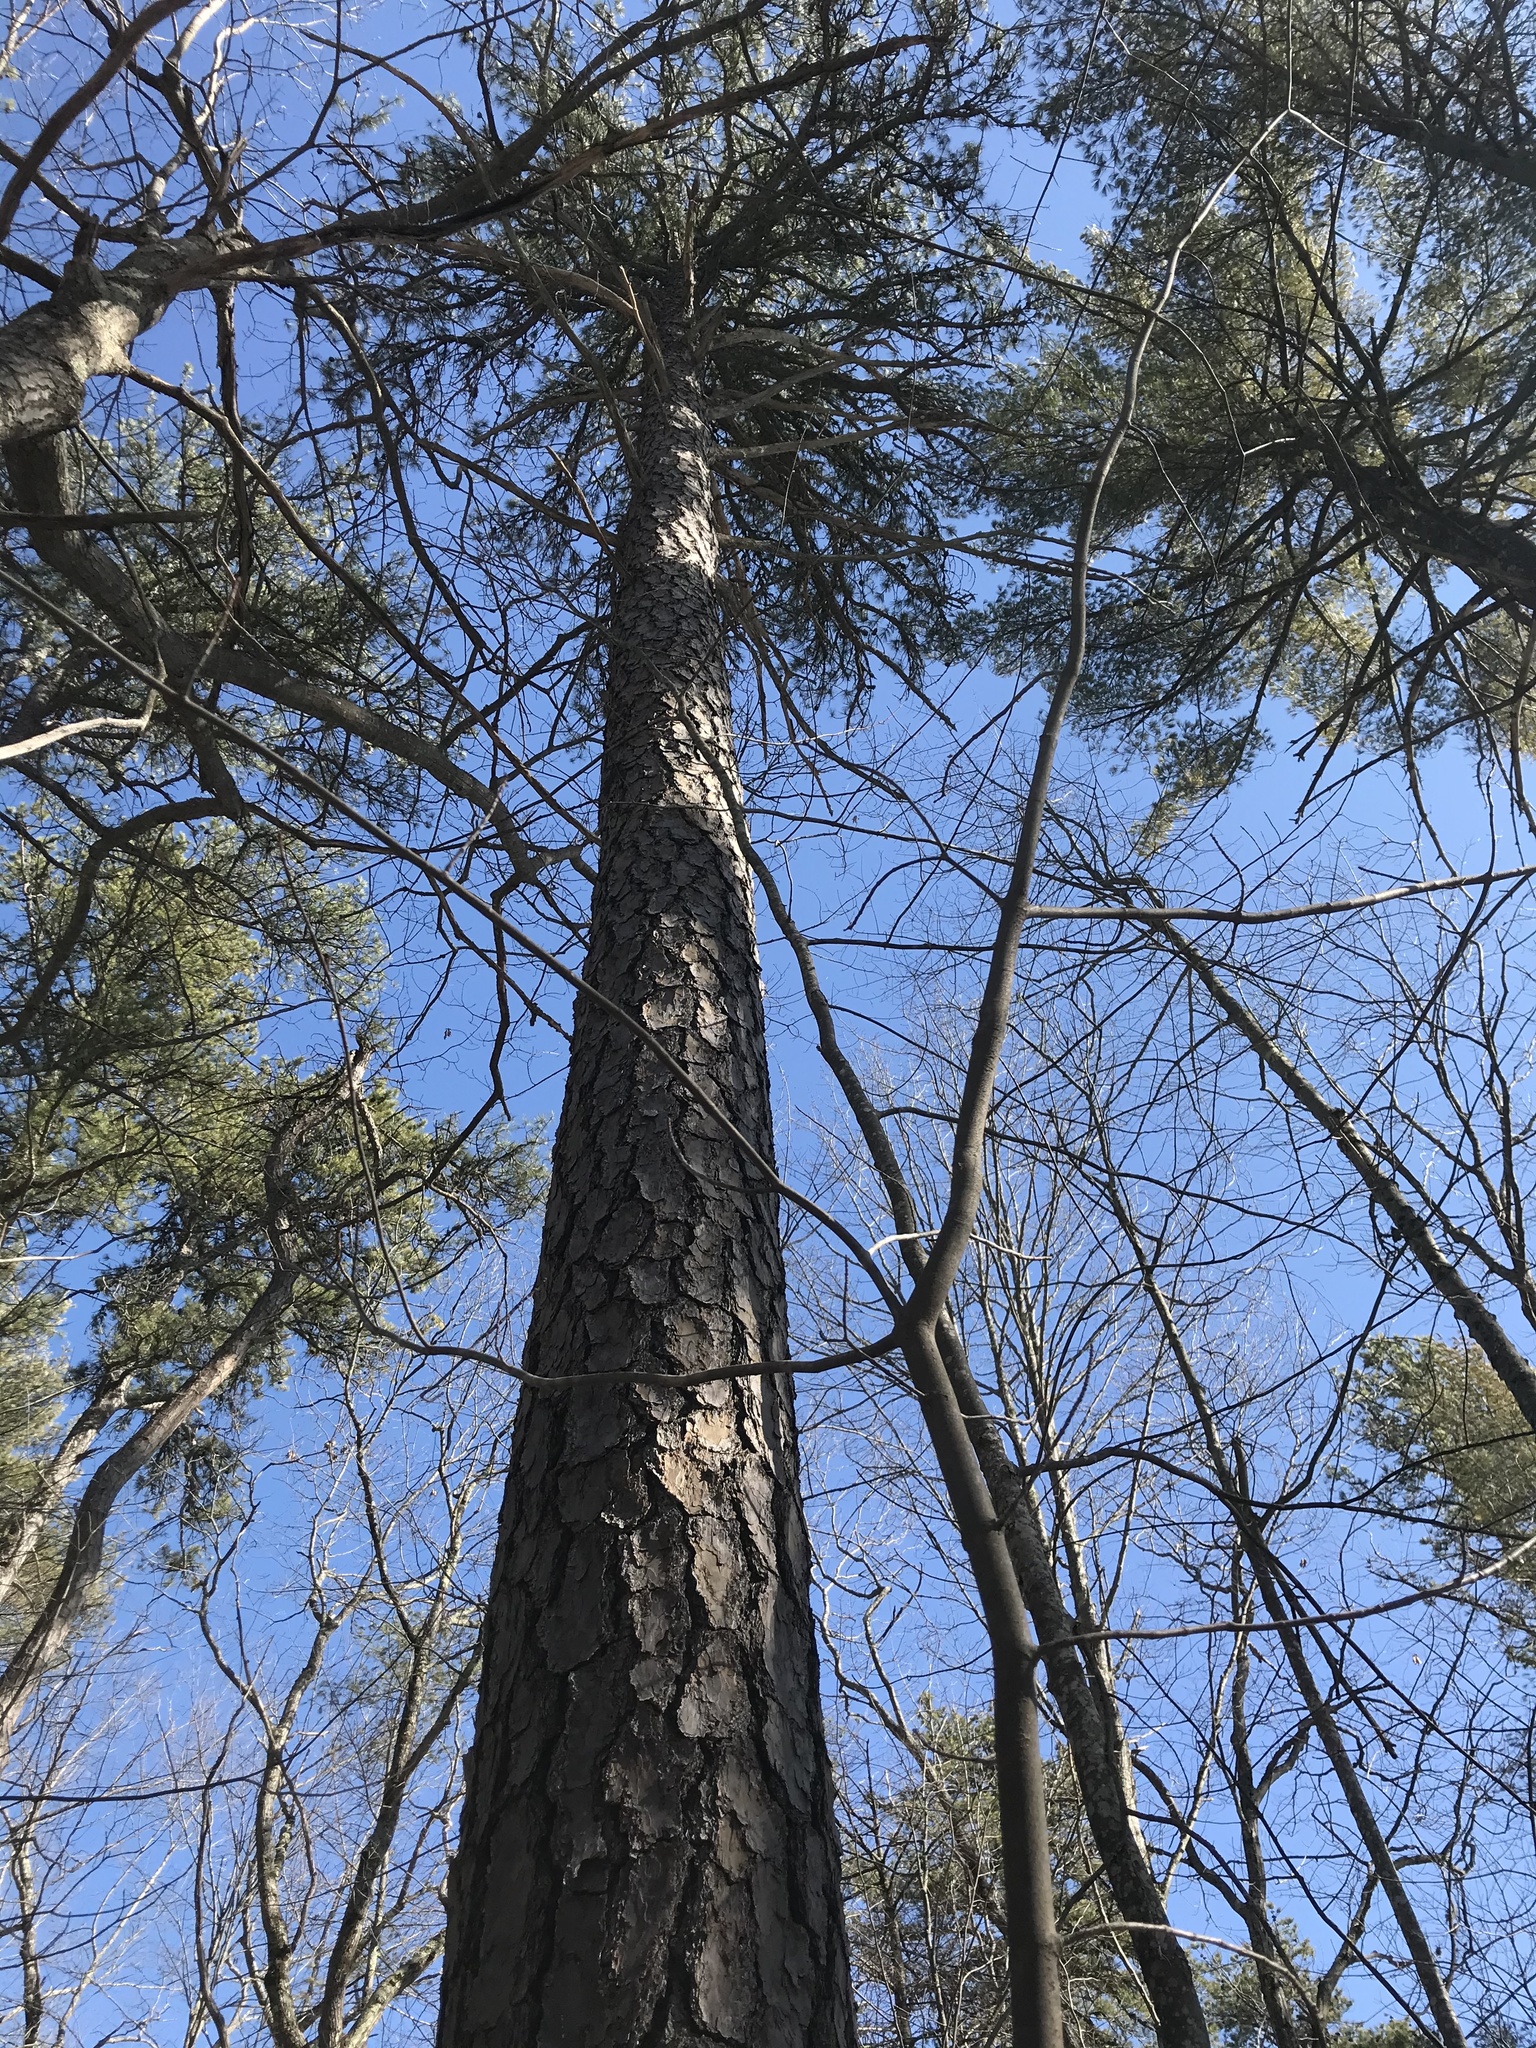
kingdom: Plantae
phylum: Tracheophyta
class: Pinopsida
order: Pinales
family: Pinaceae
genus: Pinus
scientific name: Pinus rigida
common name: Pitch pine
